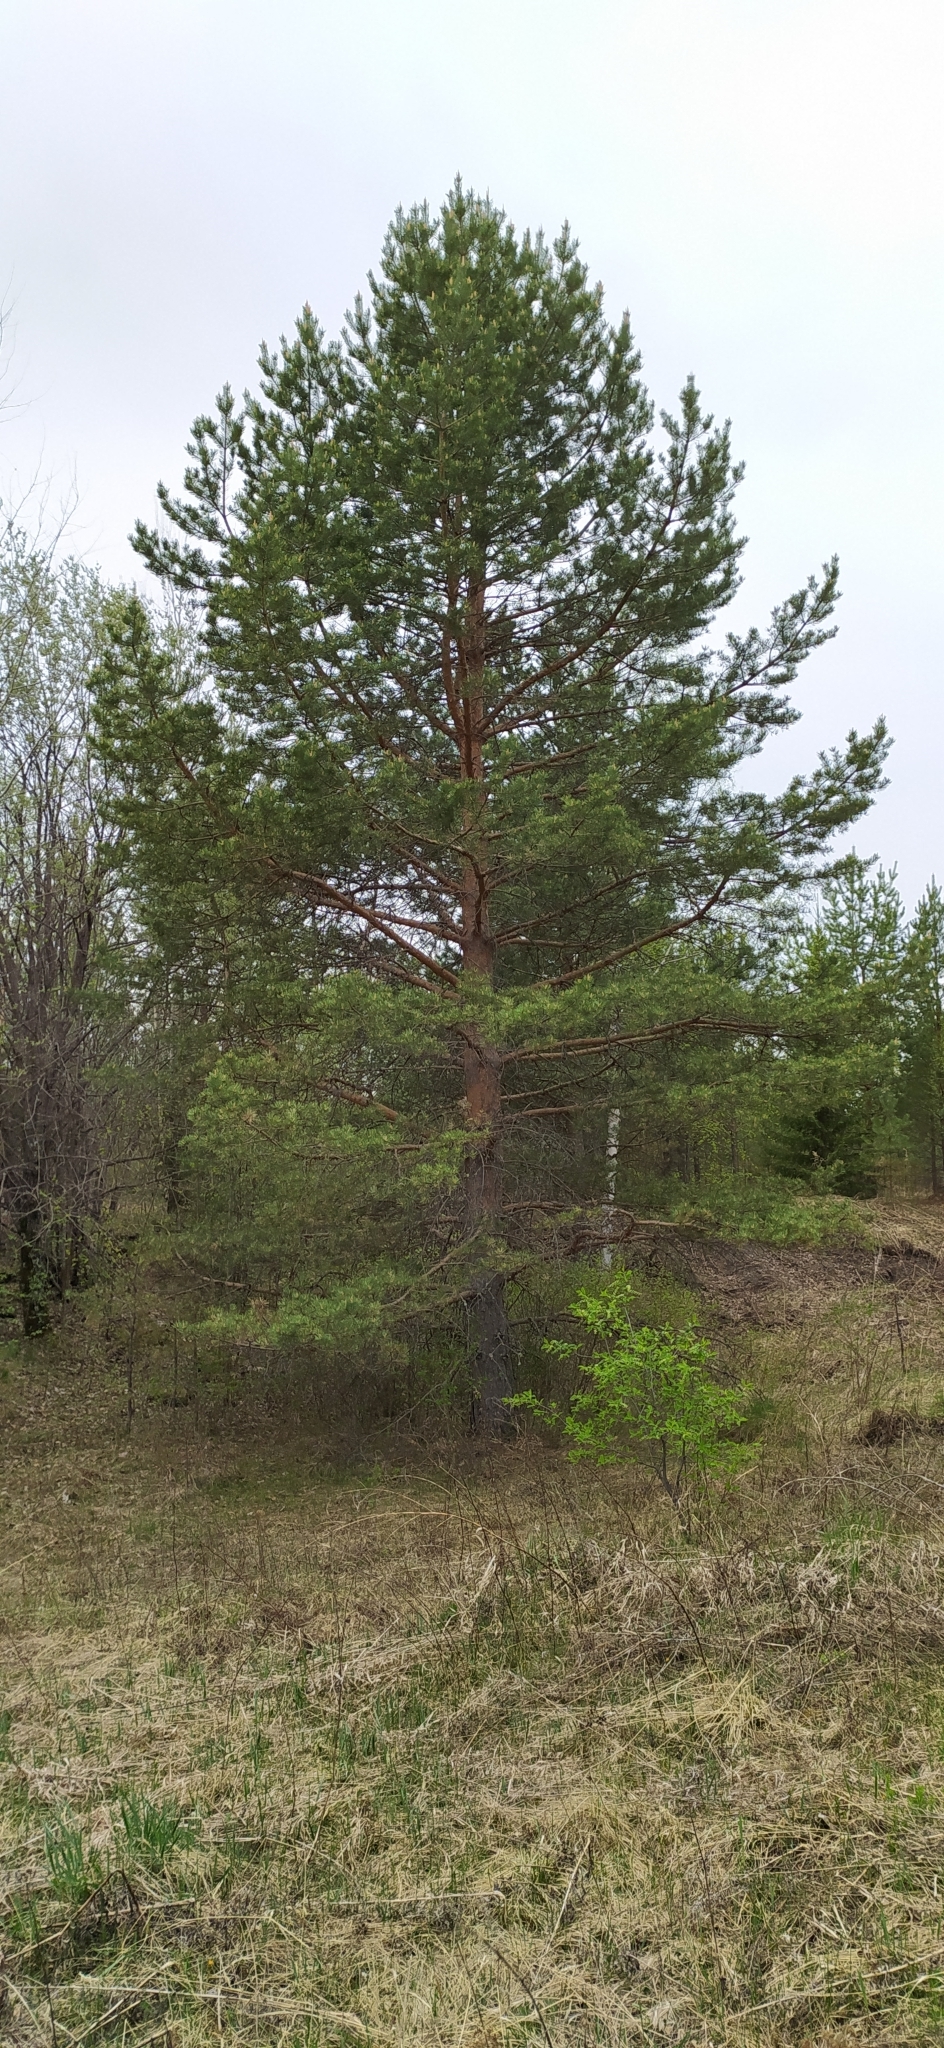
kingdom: Plantae
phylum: Tracheophyta
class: Pinopsida
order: Pinales
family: Pinaceae
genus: Pinus
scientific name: Pinus sylvestris
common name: Scots pine
